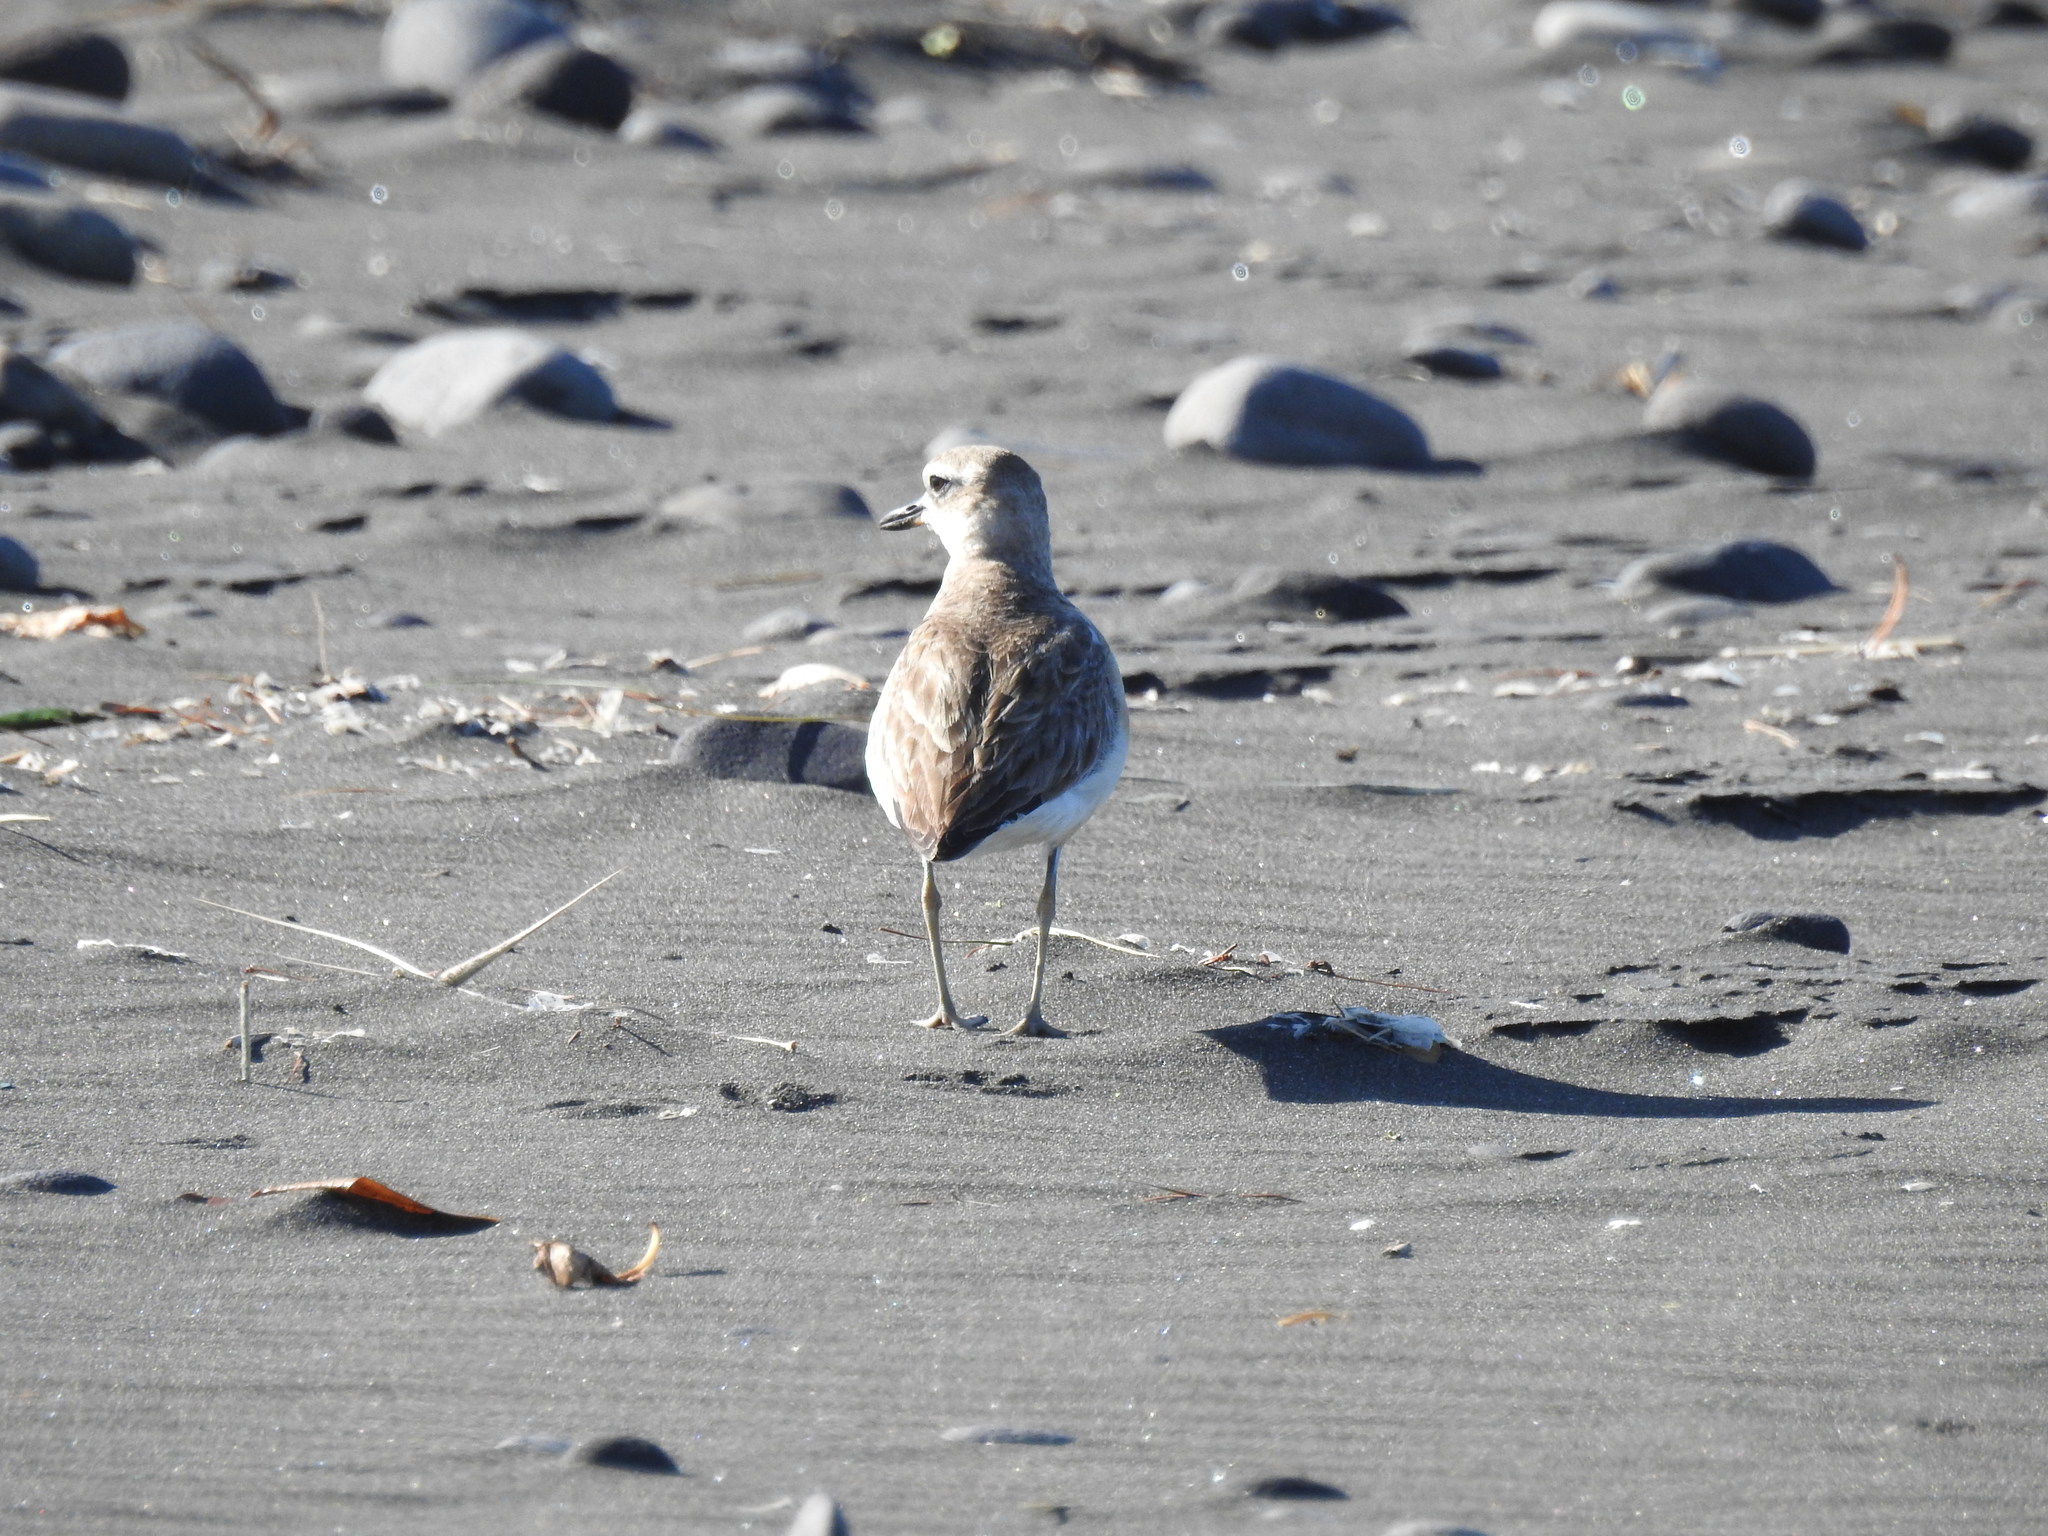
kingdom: Animalia
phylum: Chordata
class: Aves
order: Charadriiformes
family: Charadriidae
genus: Anarhynchus
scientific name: Anarhynchus
